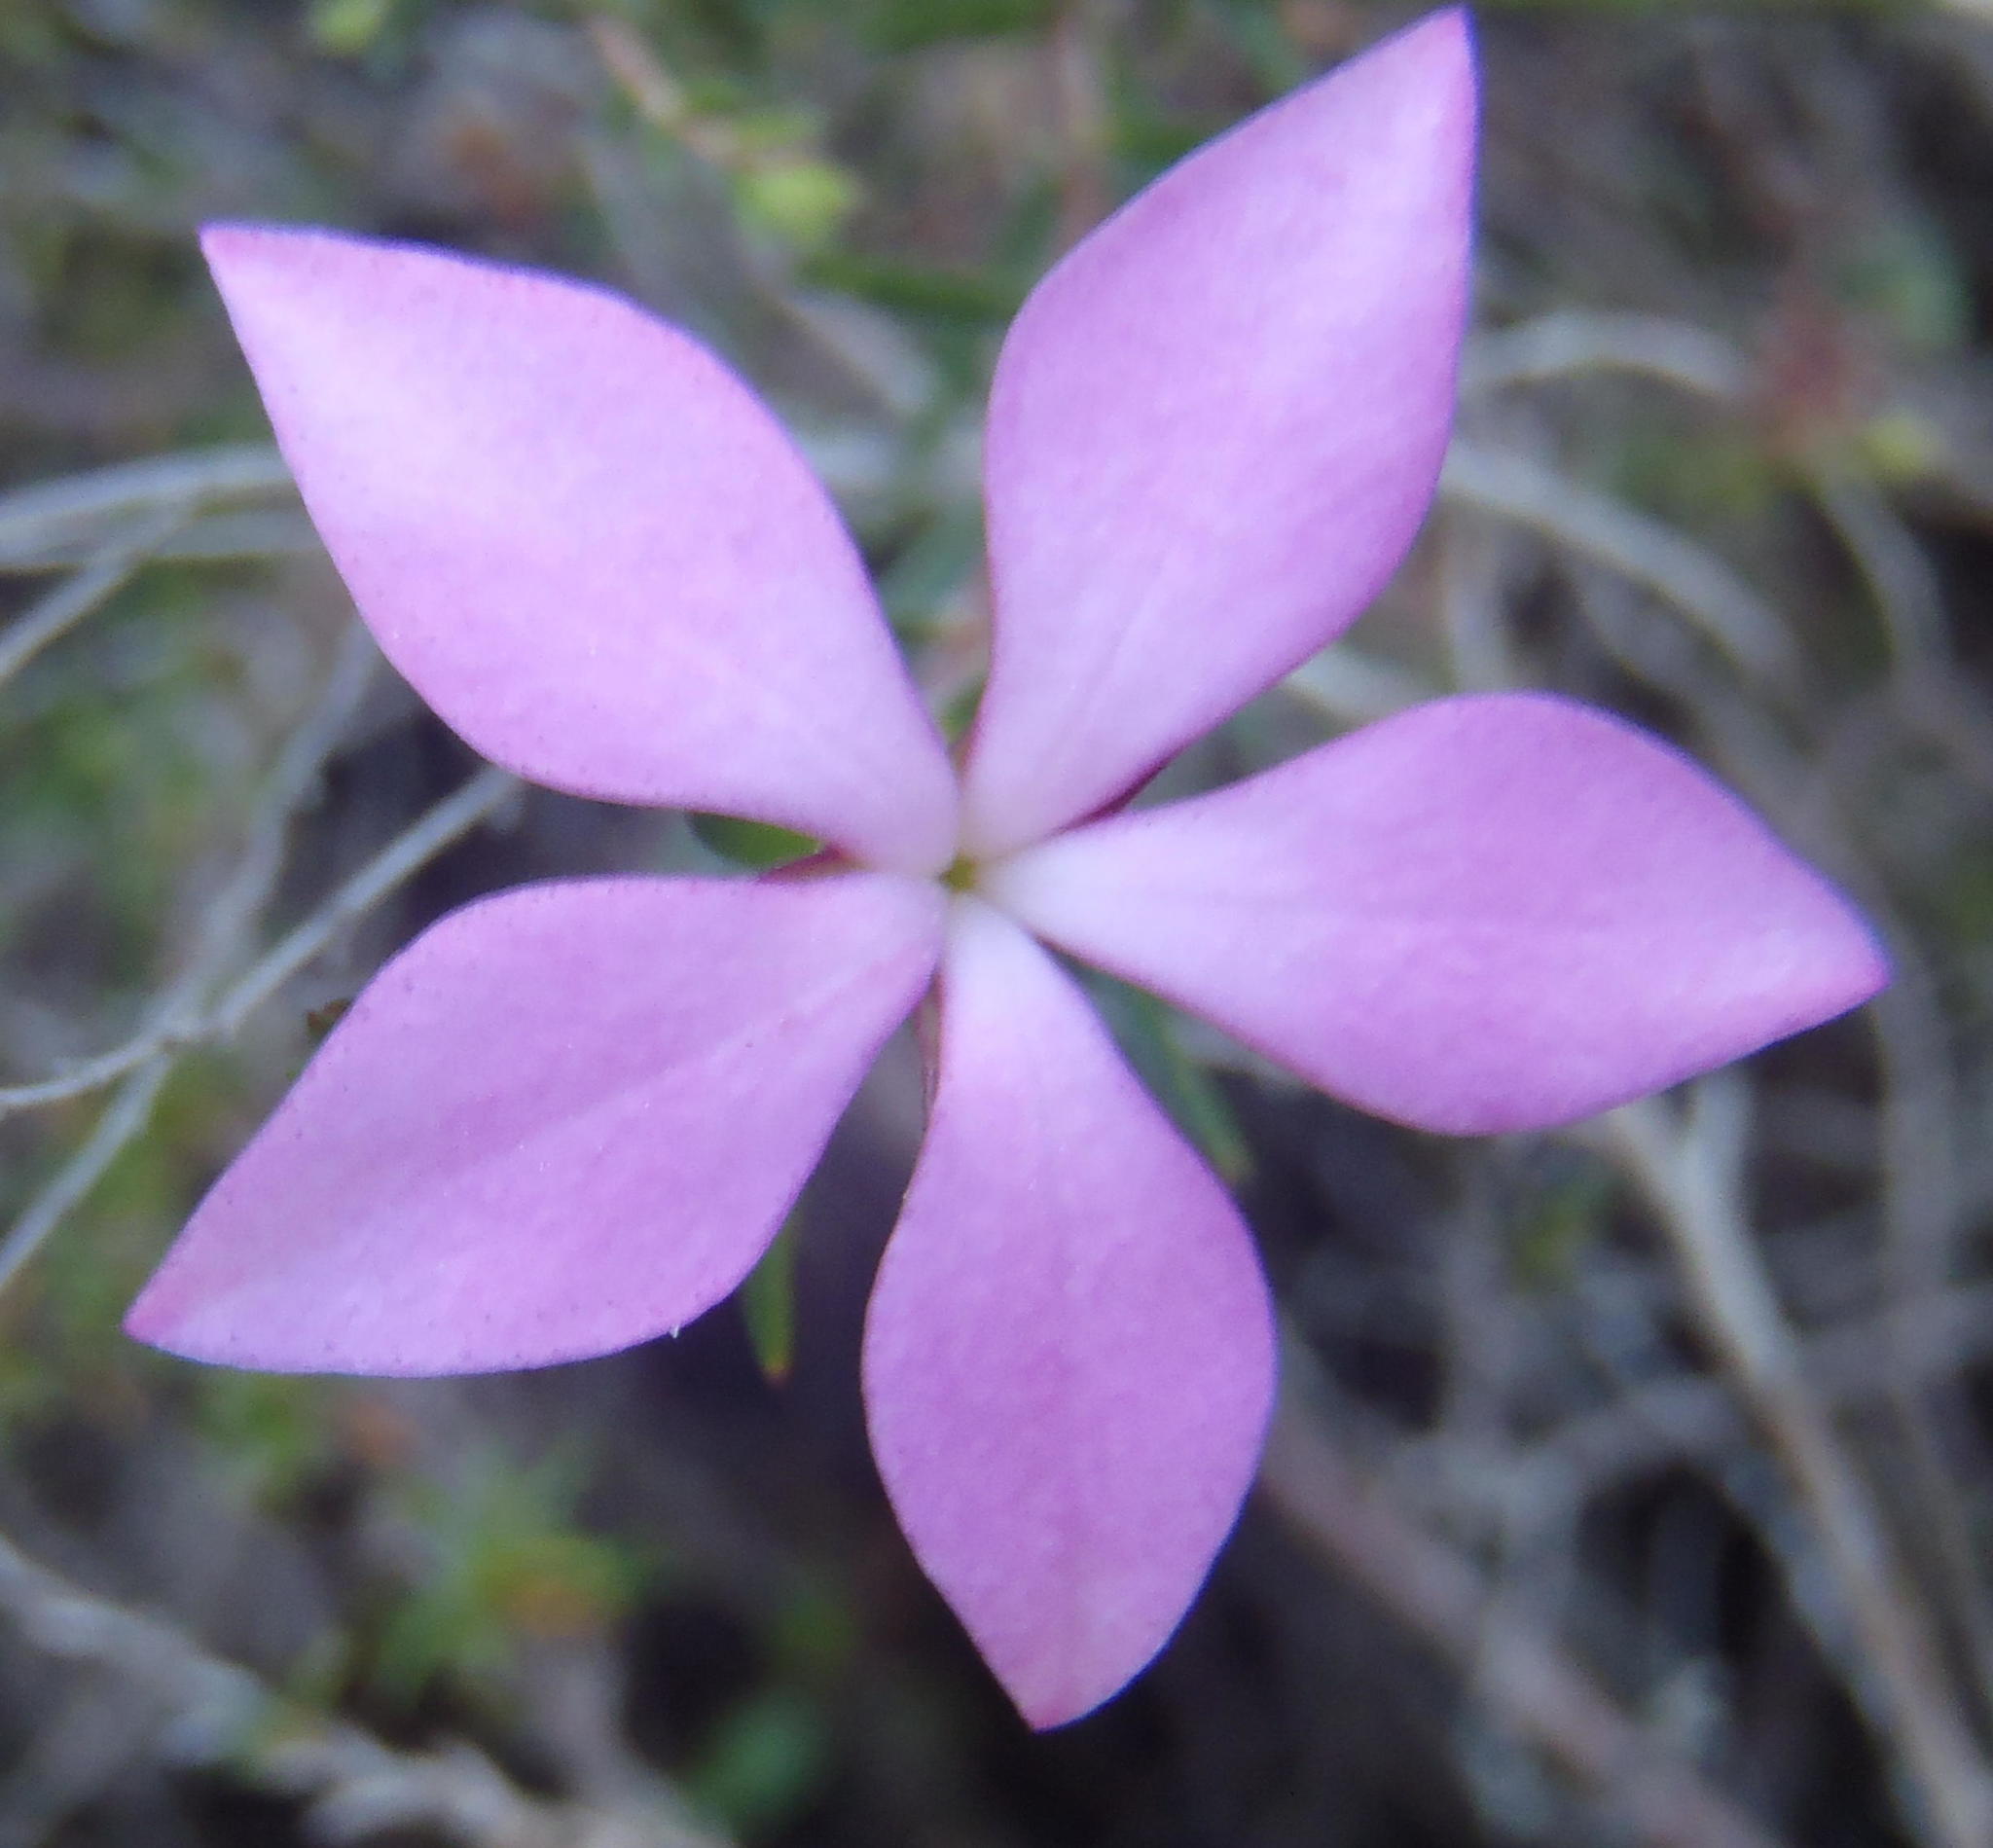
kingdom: Plantae
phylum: Tracheophyta
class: Magnoliopsida
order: Sapindales
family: Rutaceae
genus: Acmadenia
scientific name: Acmadenia trigona
